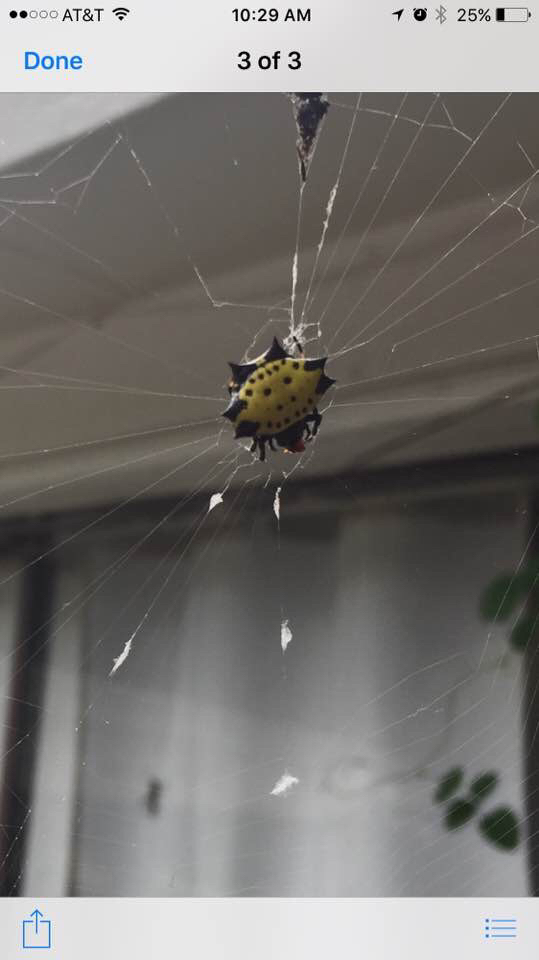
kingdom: Animalia
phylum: Arthropoda
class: Arachnida
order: Araneae
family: Araneidae
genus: Gasteracantha
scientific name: Gasteracantha cancriformis
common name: Orb weavers
